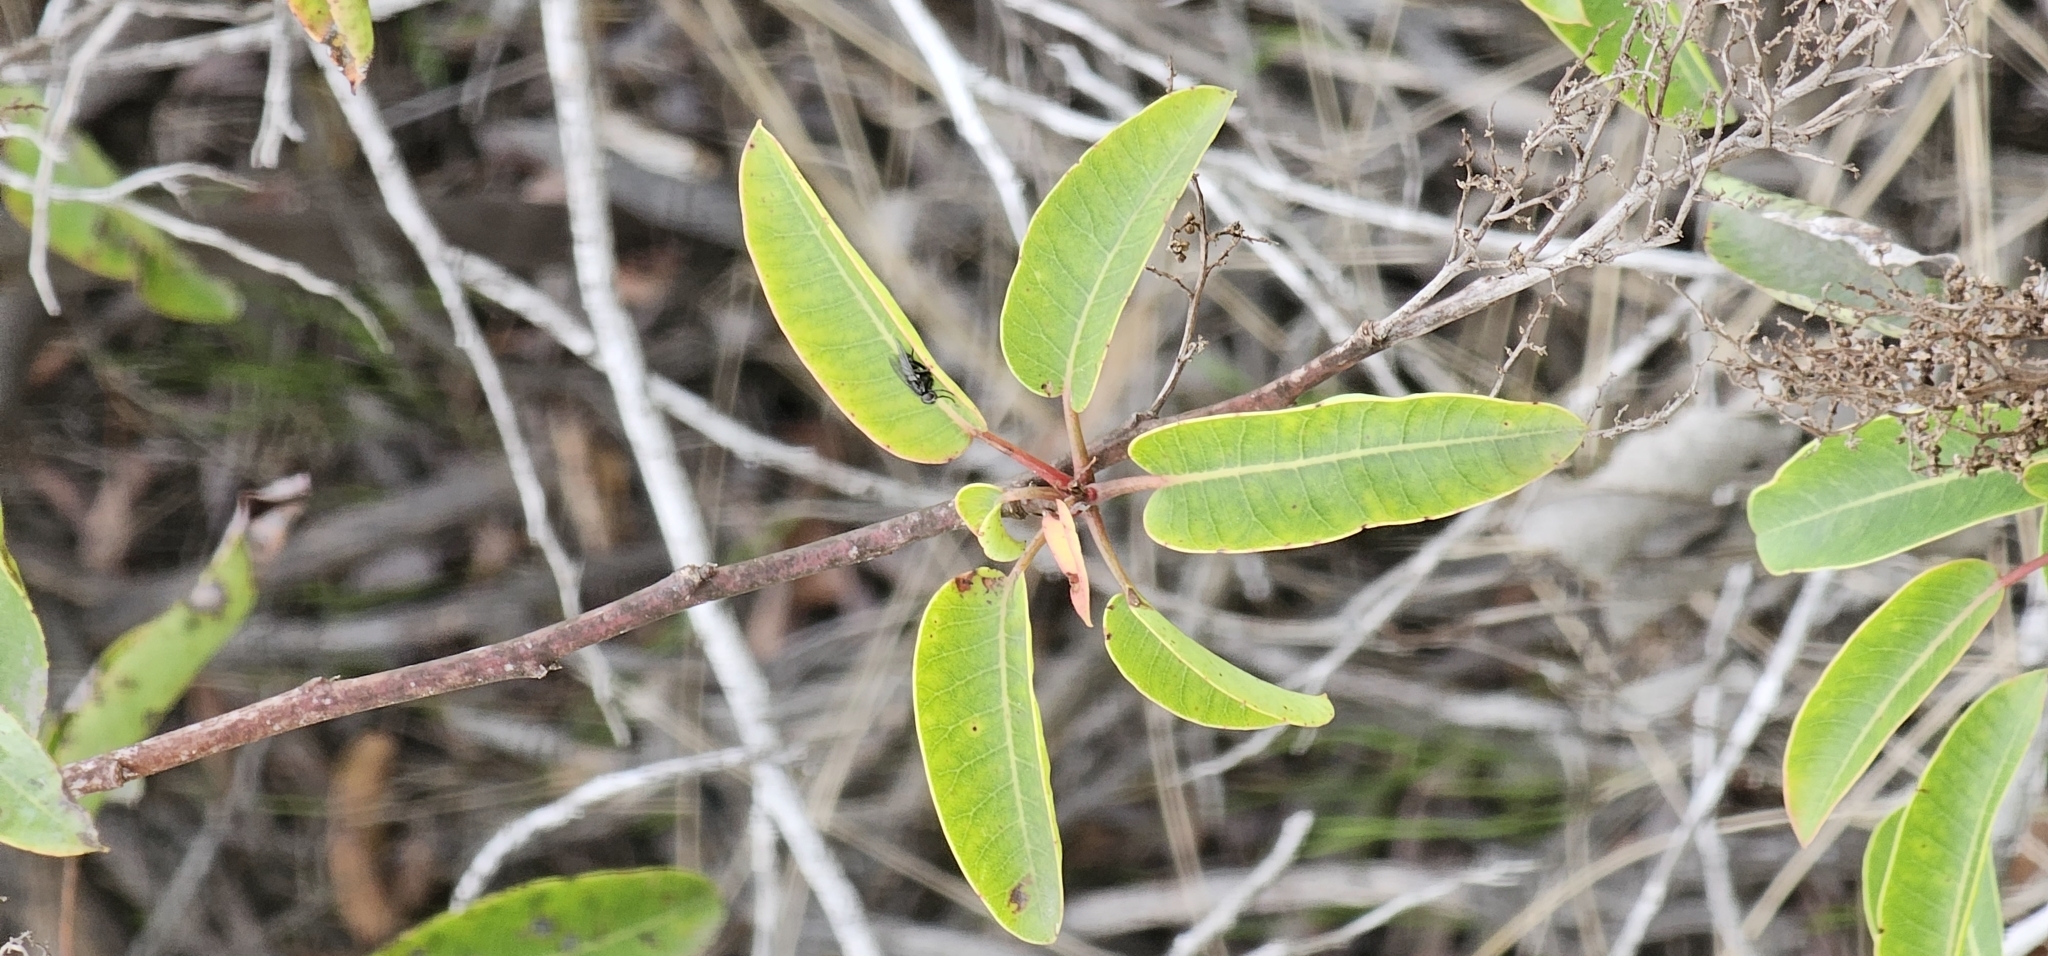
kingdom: Plantae
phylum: Tracheophyta
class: Magnoliopsida
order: Sapindales
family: Anacardiaceae
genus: Malosma
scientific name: Malosma laurina
